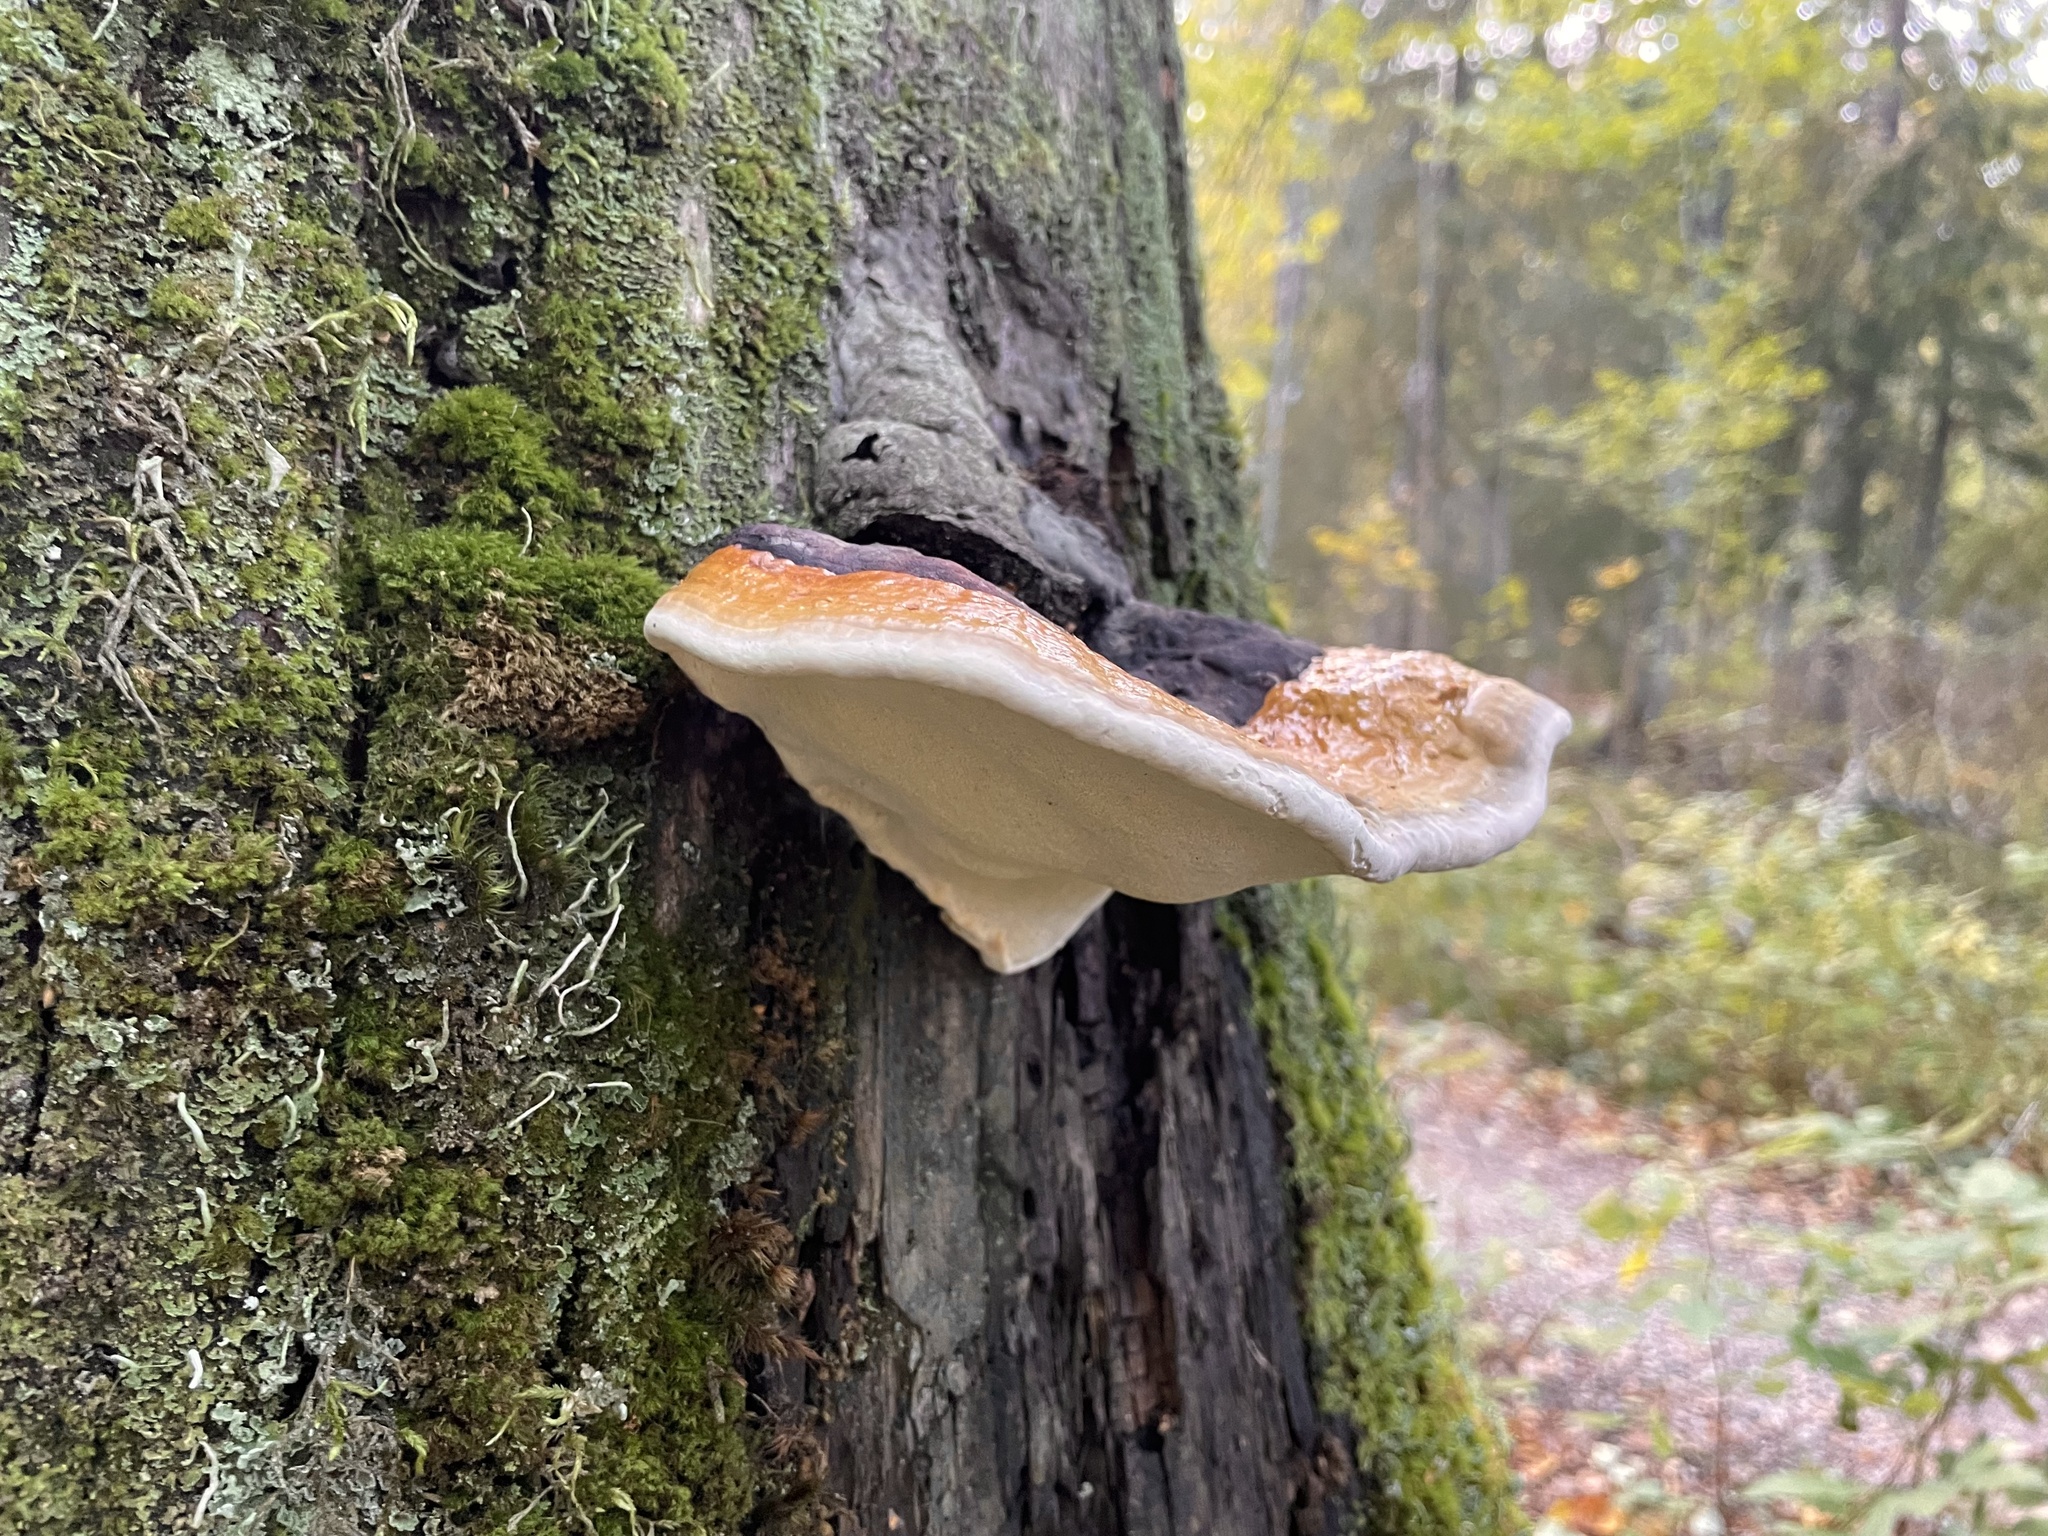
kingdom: Fungi
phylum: Basidiomycota
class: Agaricomycetes
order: Polyporales
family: Fomitopsidaceae
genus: Fomitopsis
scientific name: Fomitopsis pinicola
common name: Red-belted bracket
